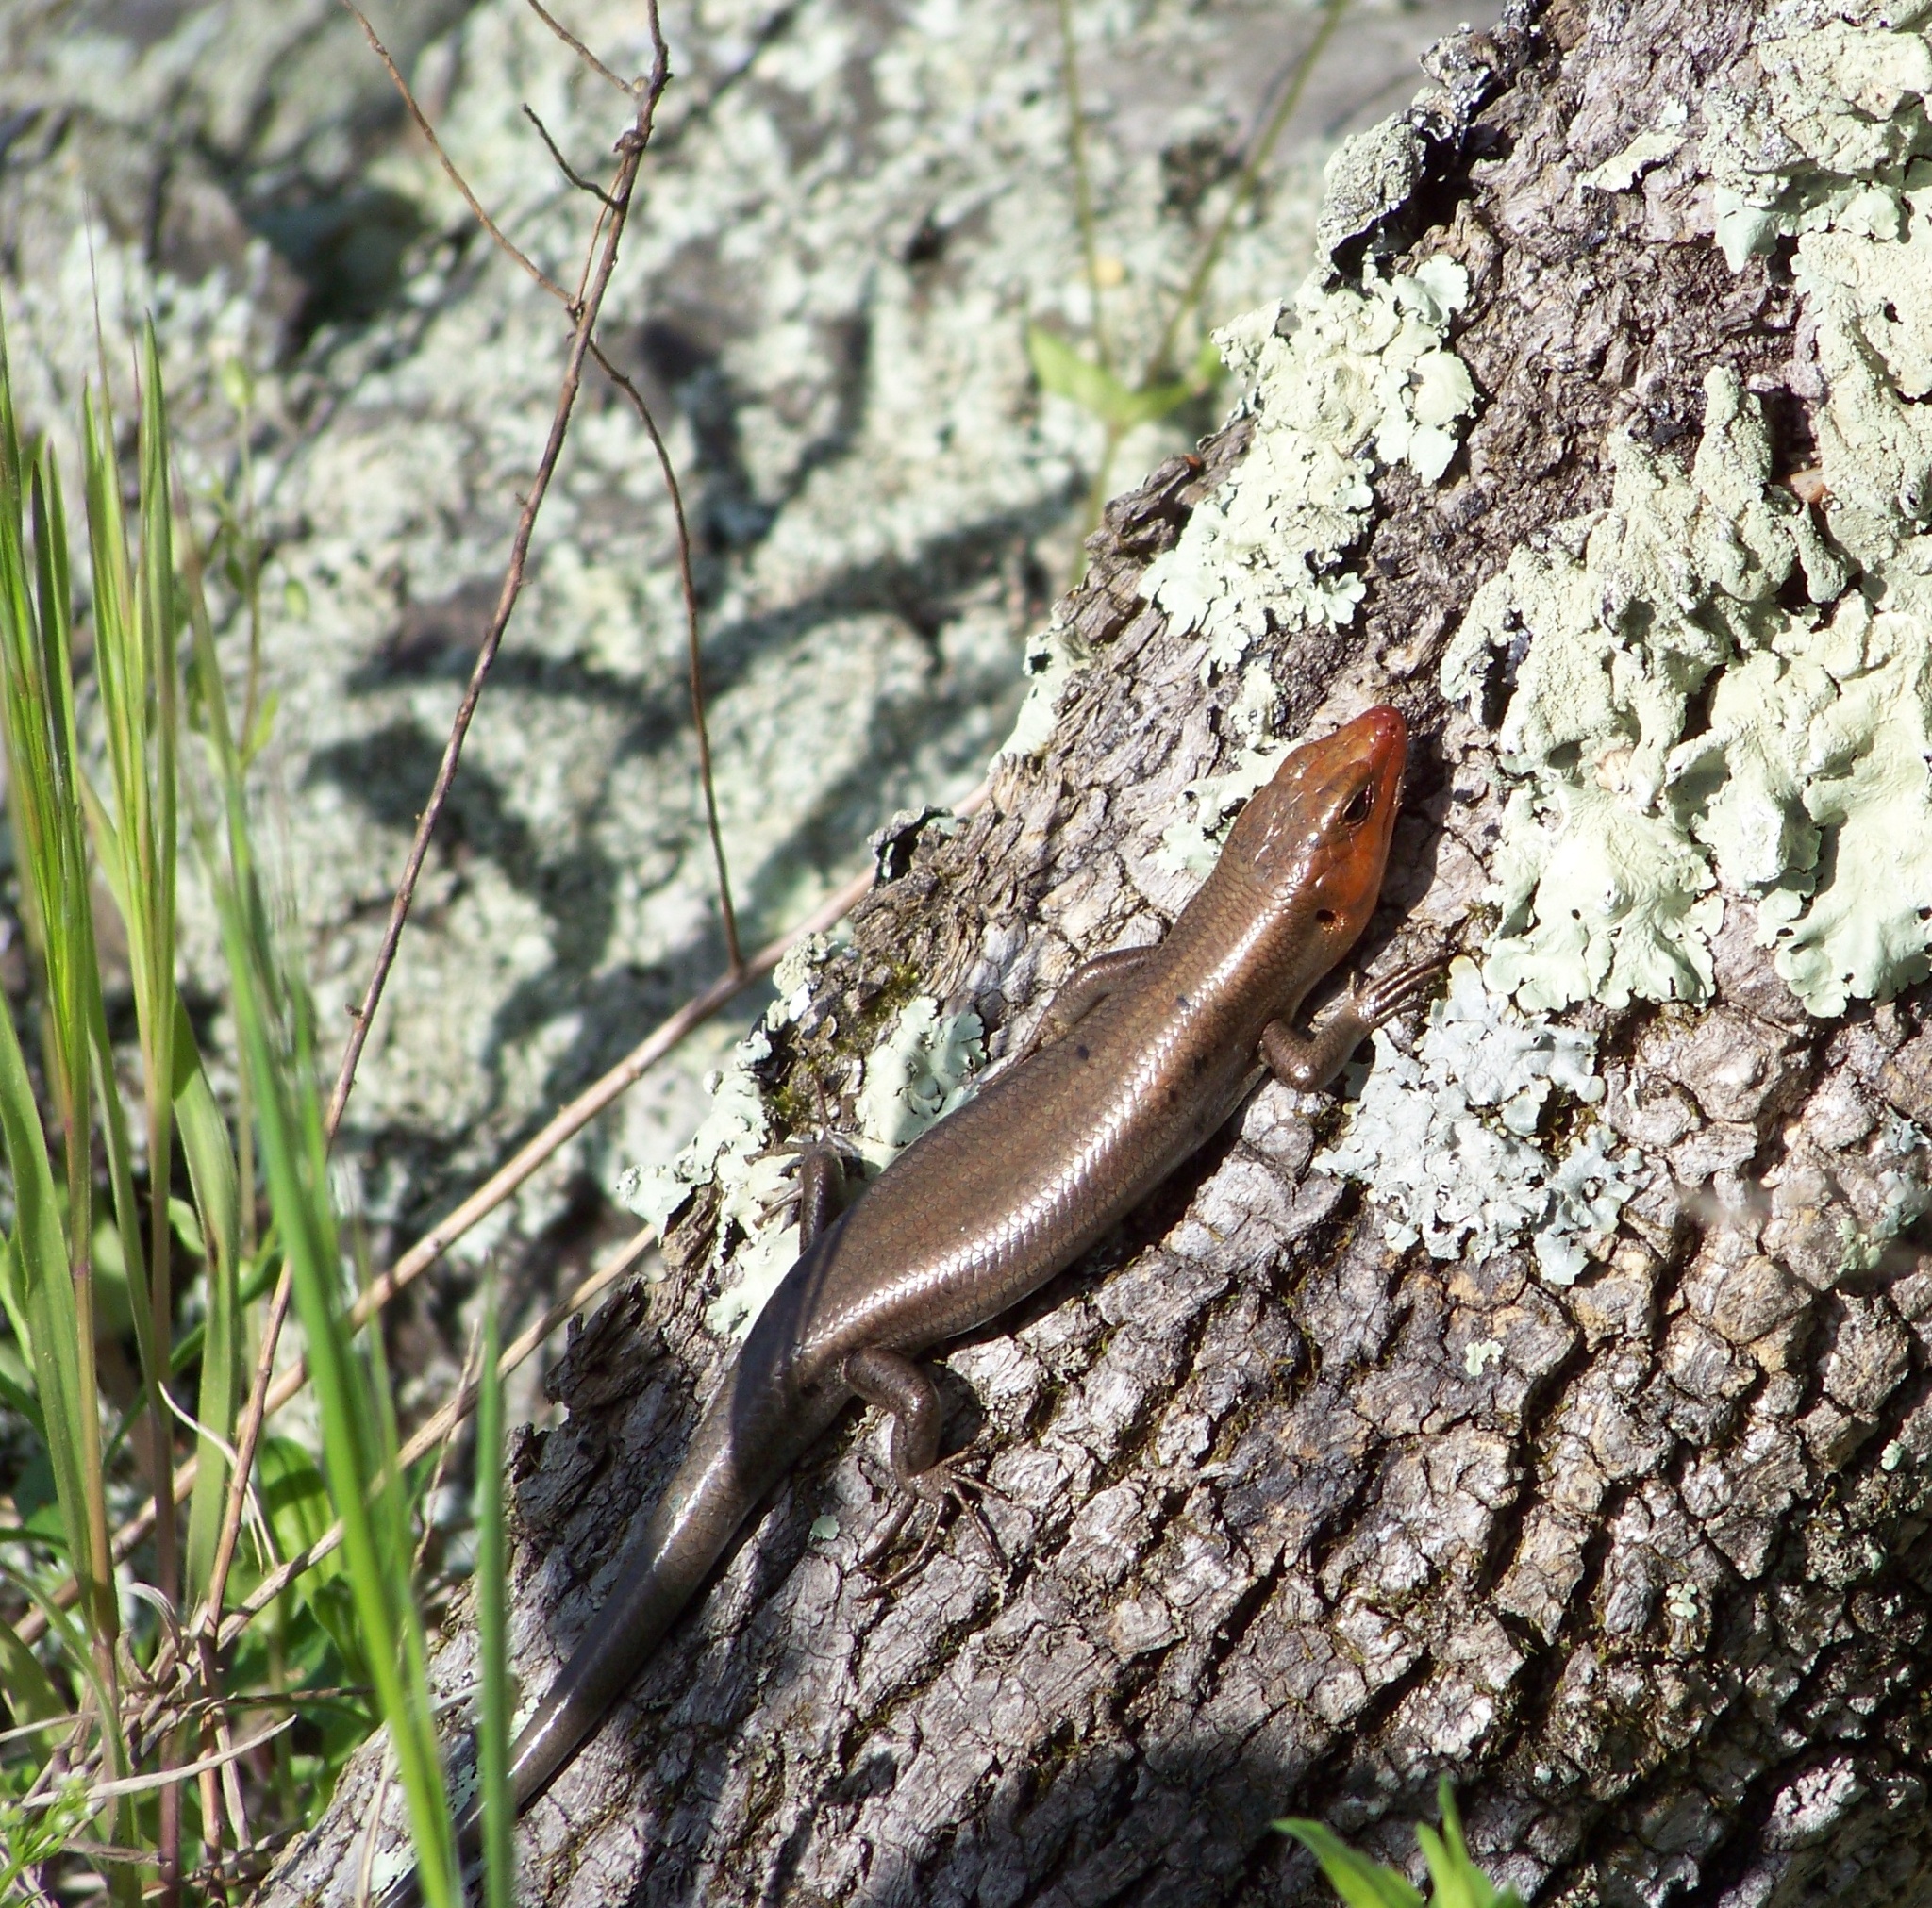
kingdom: Animalia
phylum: Chordata
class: Squamata
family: Scincidae
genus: Plestiodon
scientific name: Plestiodon fasciatus
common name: Five-lined skink
